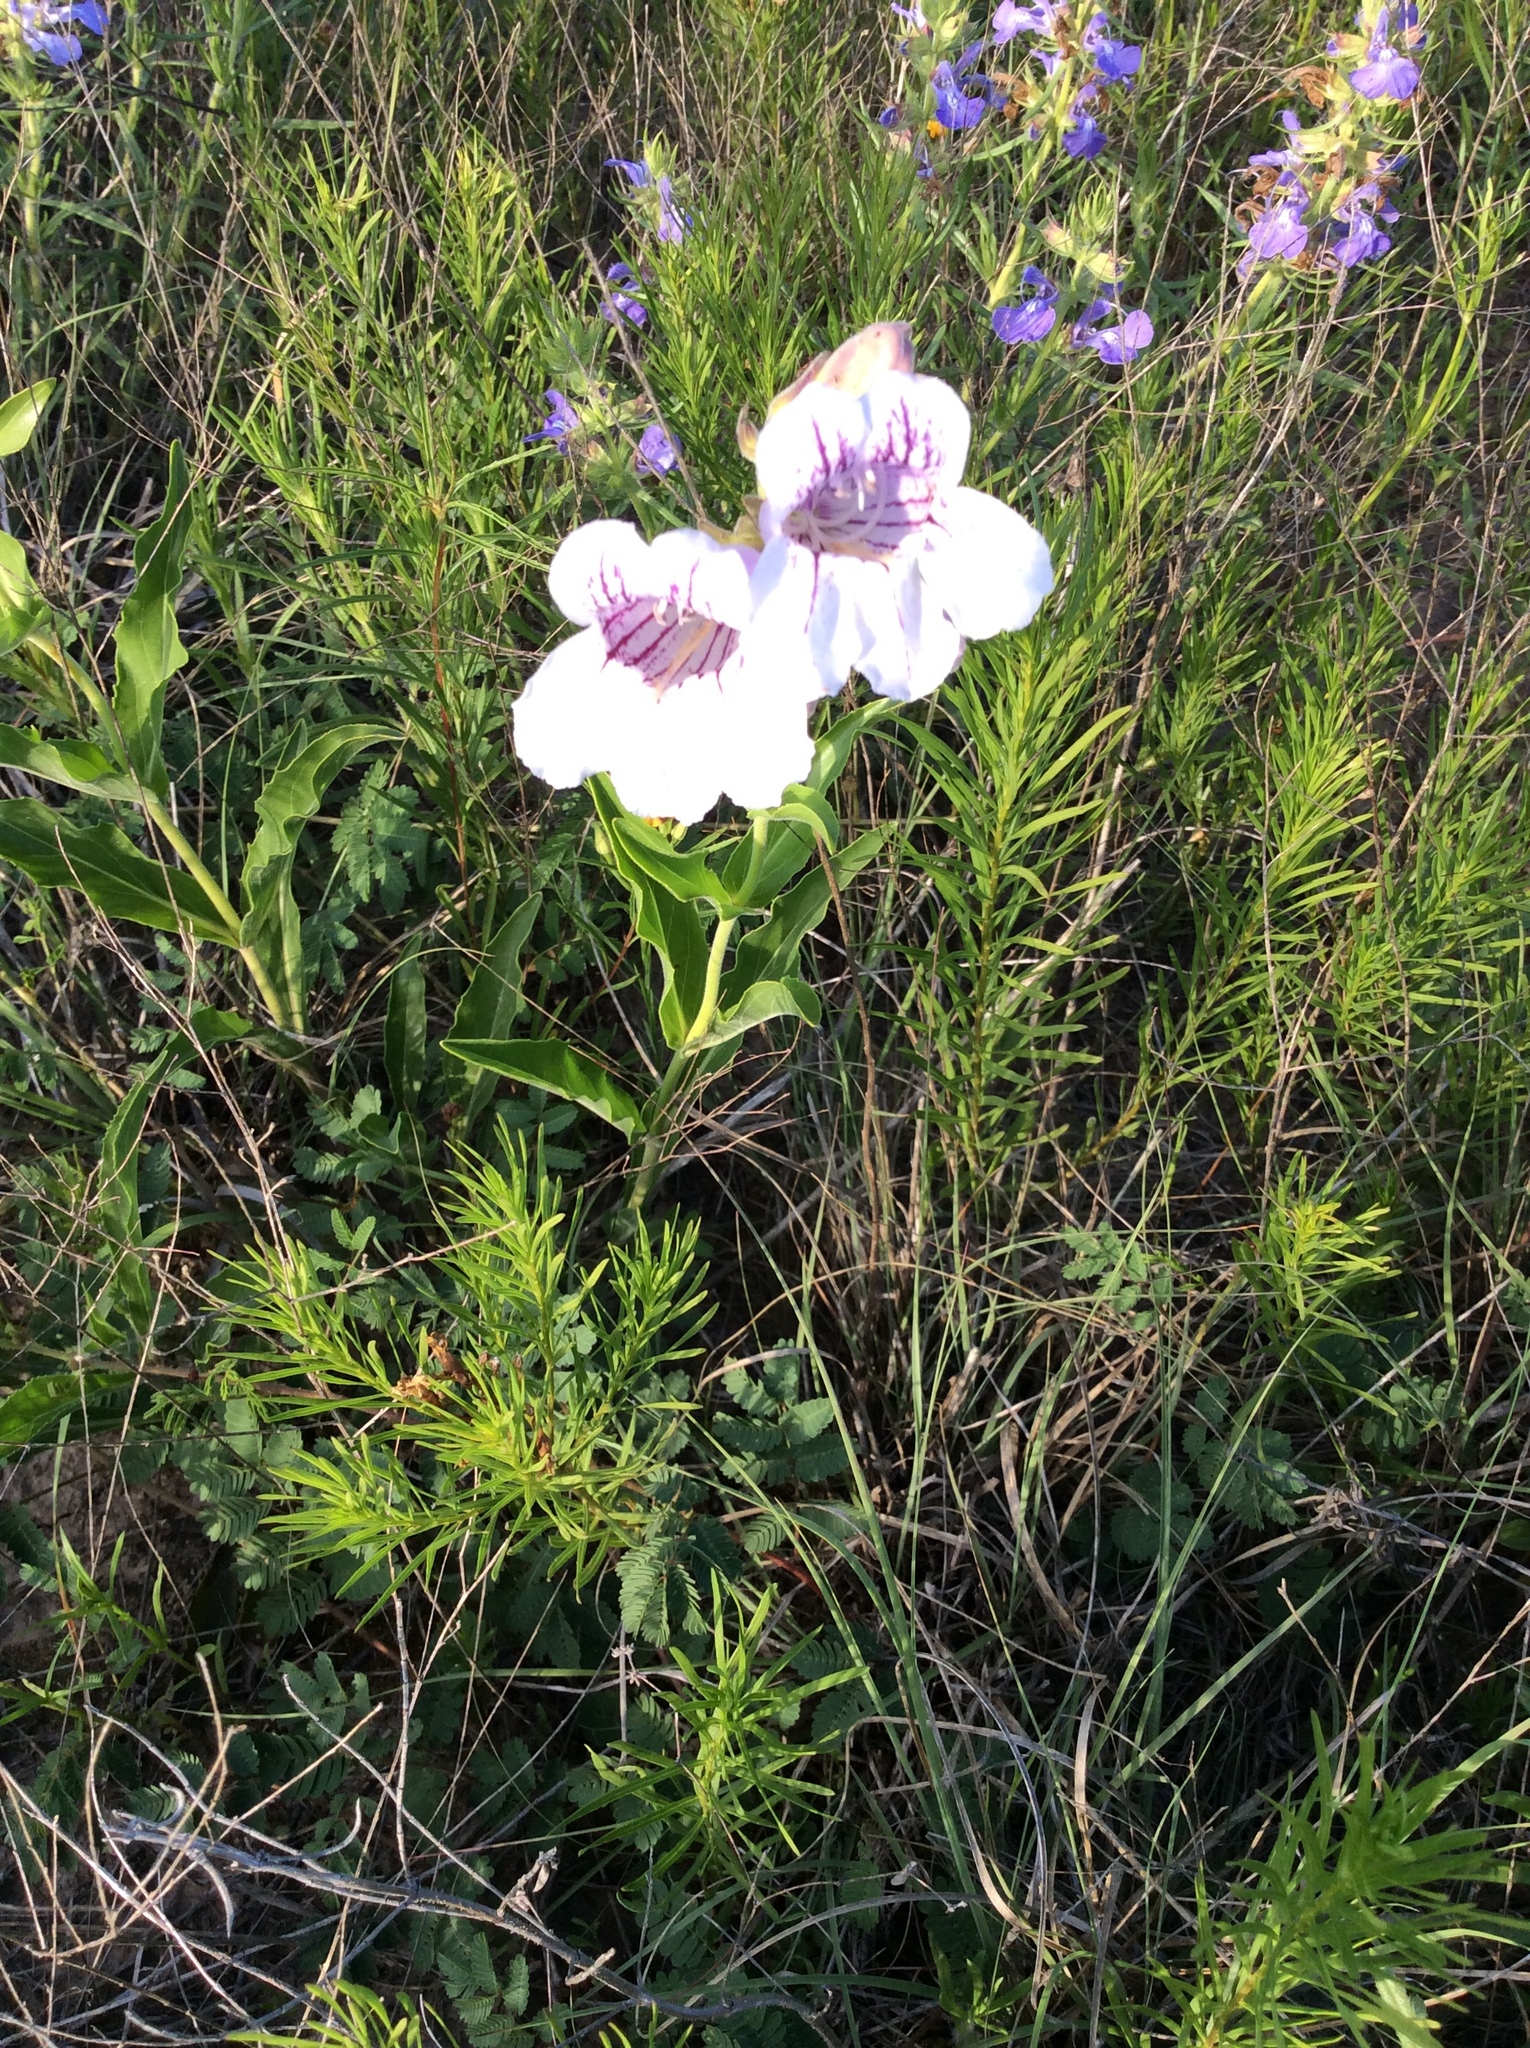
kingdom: Plantae
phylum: Tracheophyta
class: Magnoliopsida
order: Lamiales
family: Plantaginaceae
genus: Penstemon
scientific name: Penstemon cobaea
